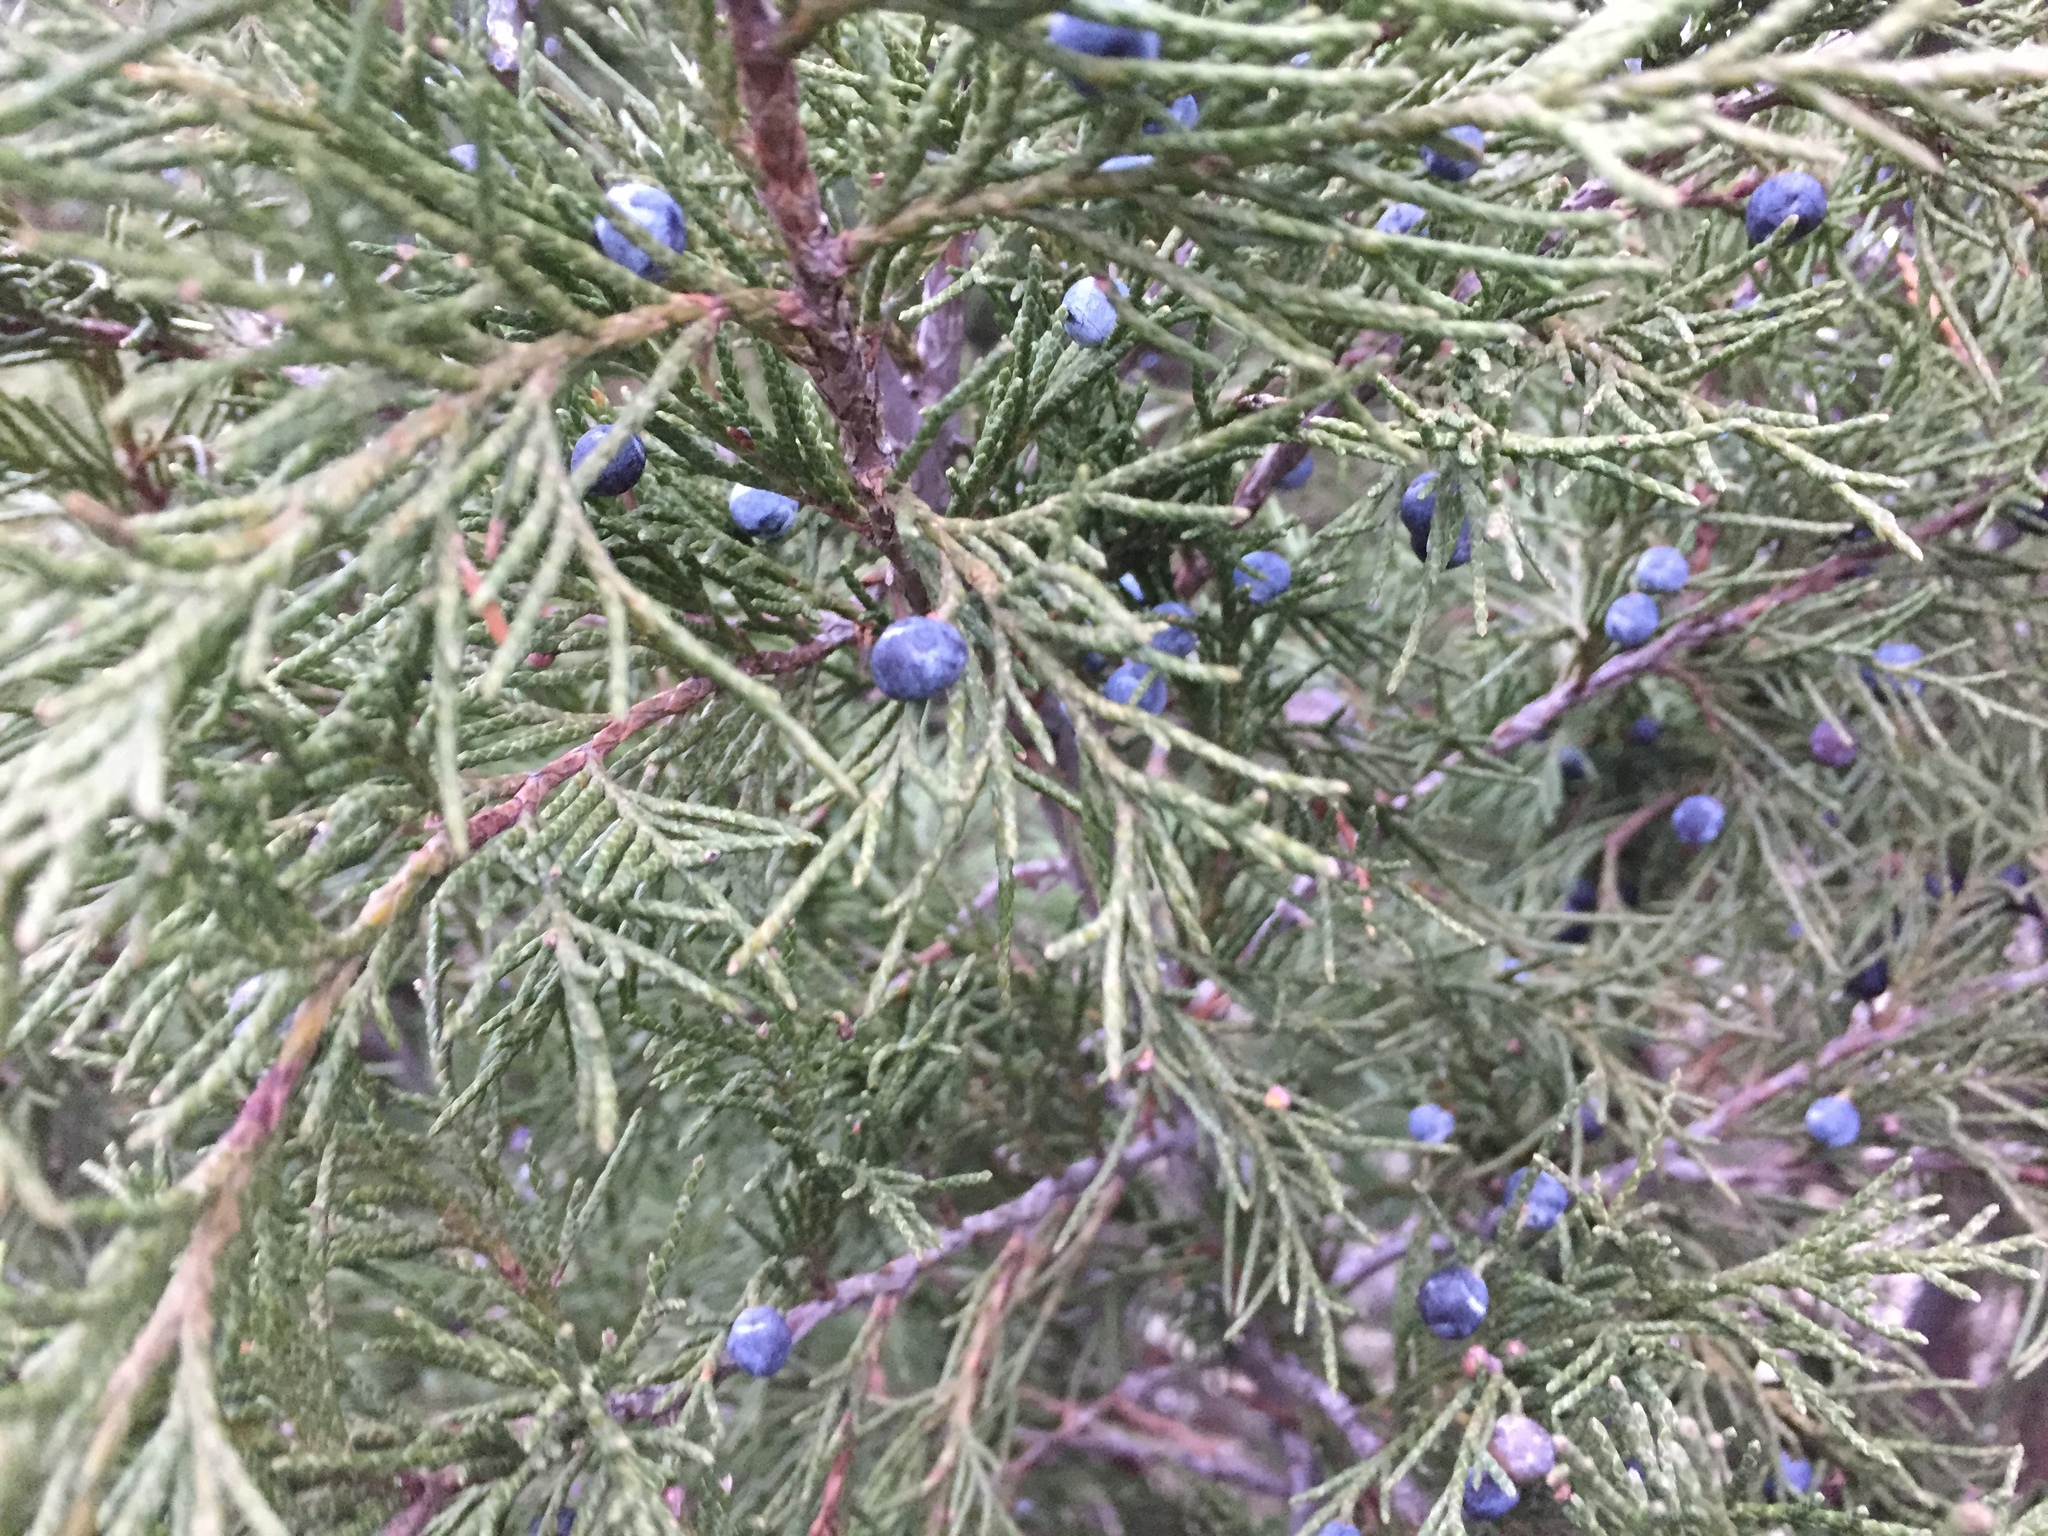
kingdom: Plantae
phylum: Tracheophyta
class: Pinopsida
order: Pinales
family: Cupressaceae
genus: Juniperus
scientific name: Juniperus scopulorum
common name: Rocky mountain juniper
